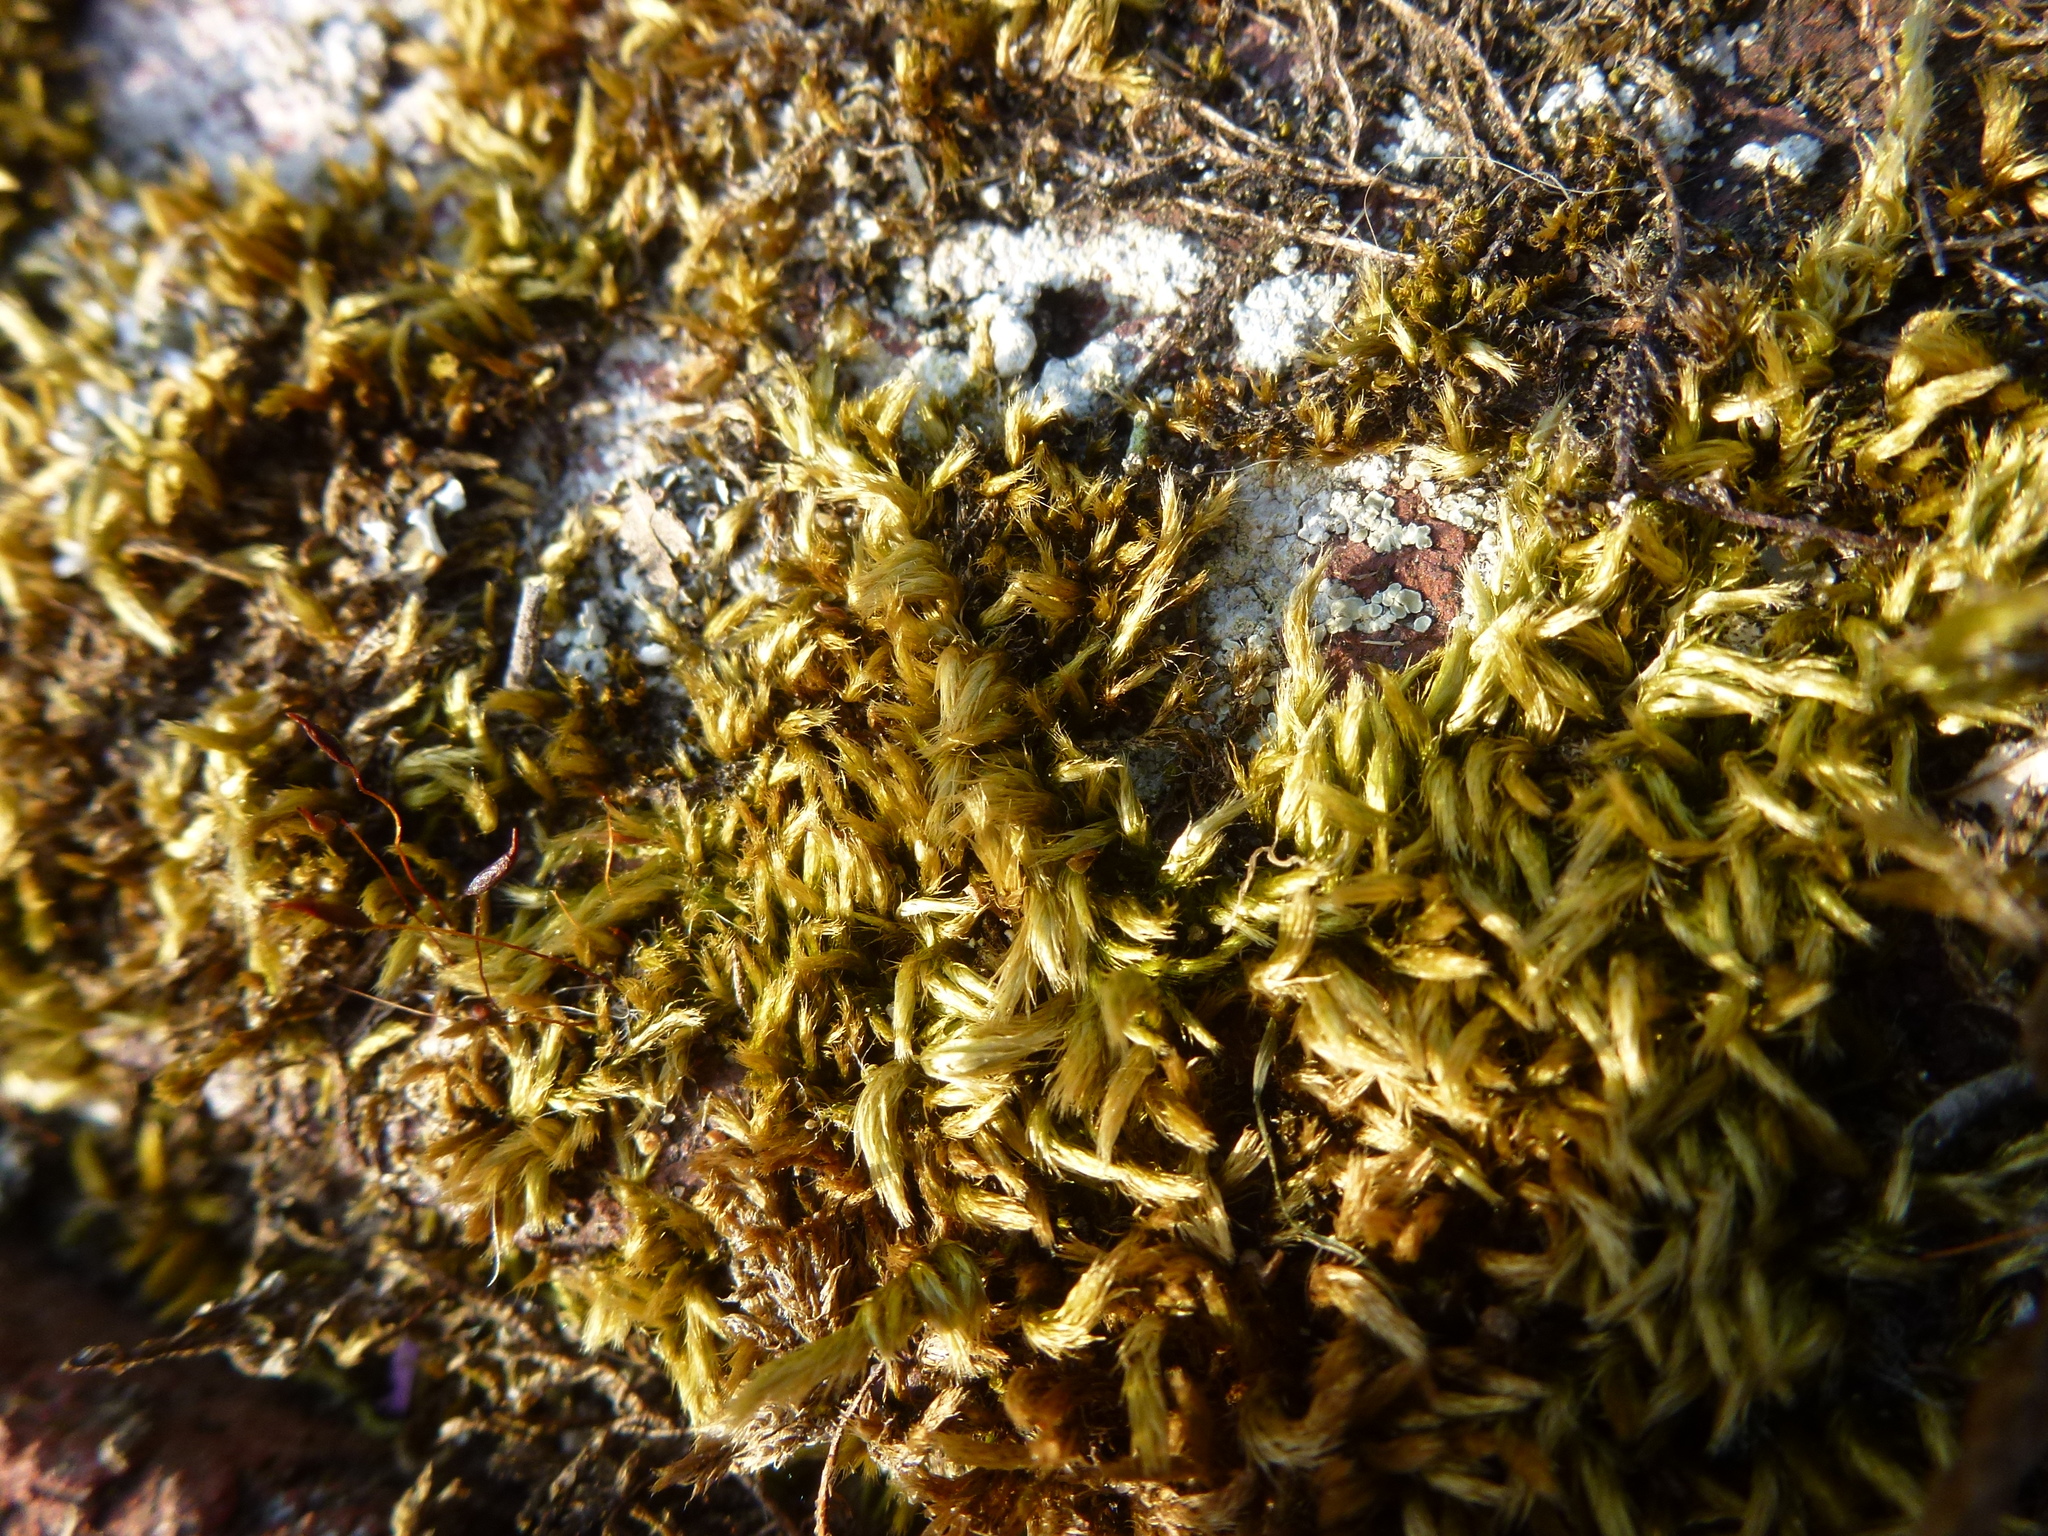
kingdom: Plantae
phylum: Bryophyta
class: Bryopsida
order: Hypnales
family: Brachytheciaceae
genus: Homalothecium
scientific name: Homalothecium sericeum
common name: Silky wall feather-moss
